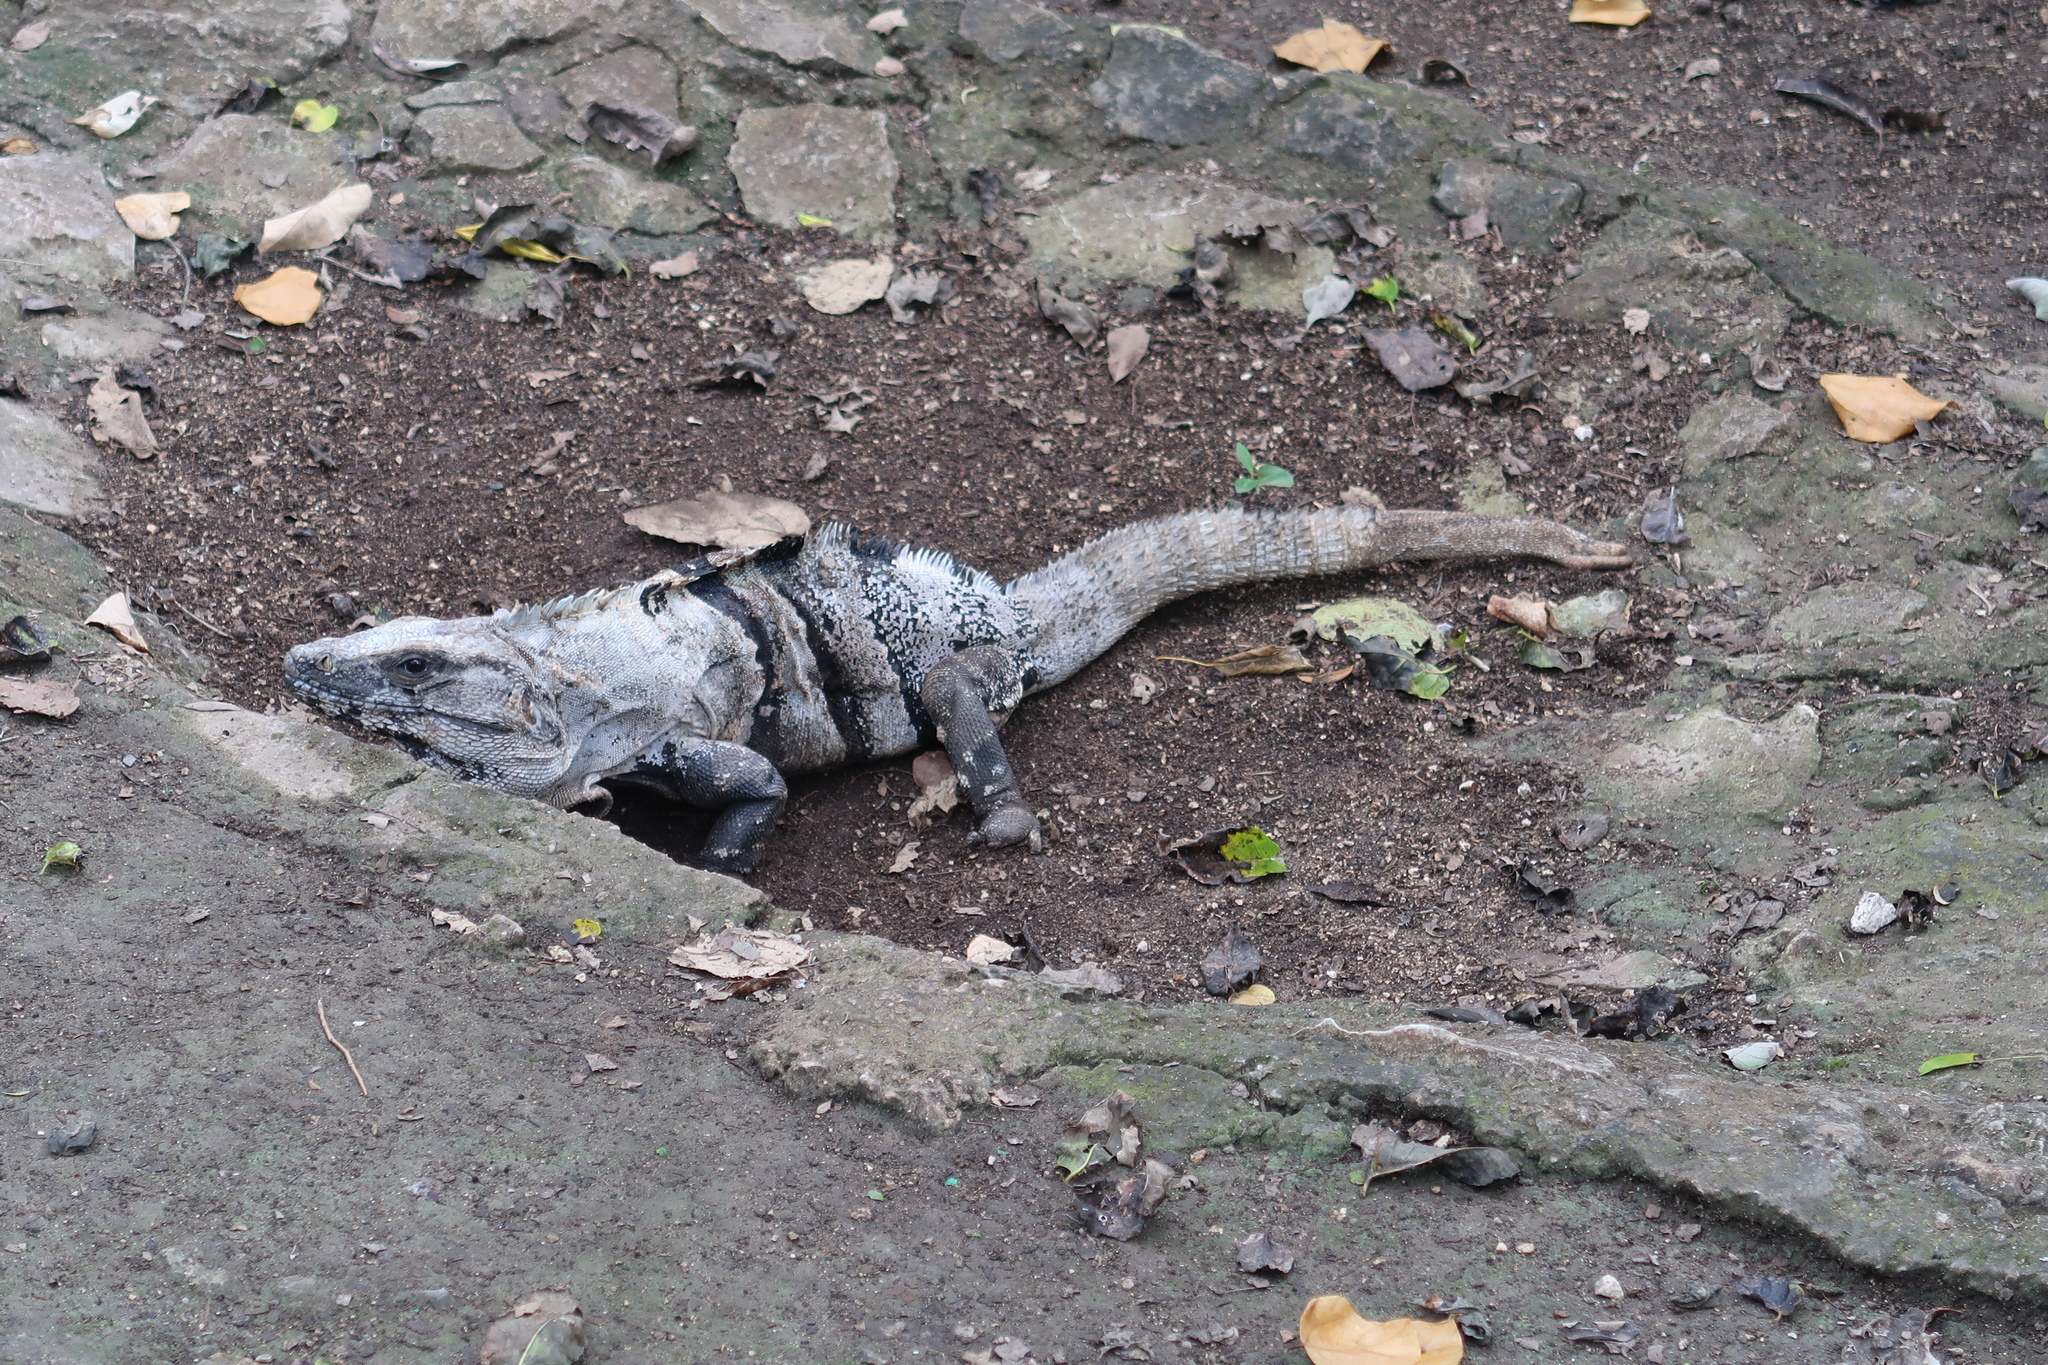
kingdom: Animalia
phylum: Chordata
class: Squamata
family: Iguanidae
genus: Ctenosaura
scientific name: Ctenosaura similis
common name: Black spiny-tailed iguana
